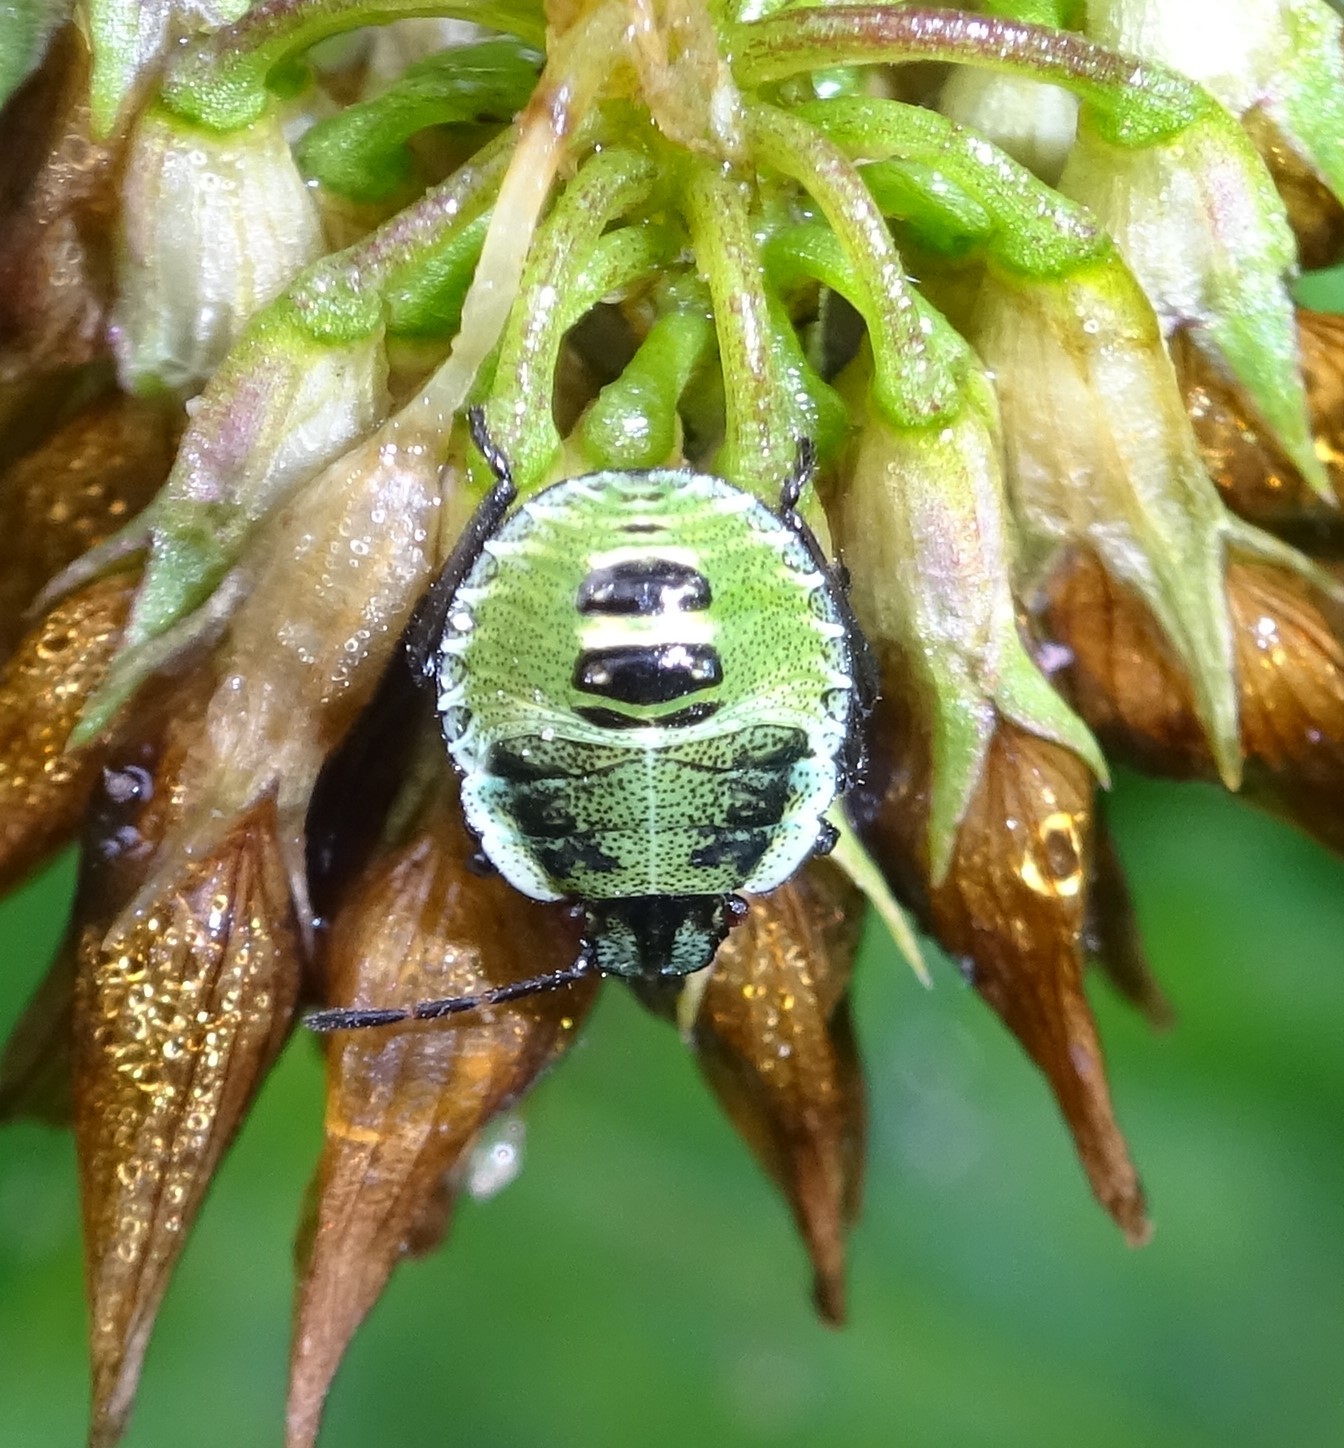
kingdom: Animalia
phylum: Arthropoda
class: Insecta
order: Hemiptera
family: Pentatomidae
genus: Palomena
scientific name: Palomena
